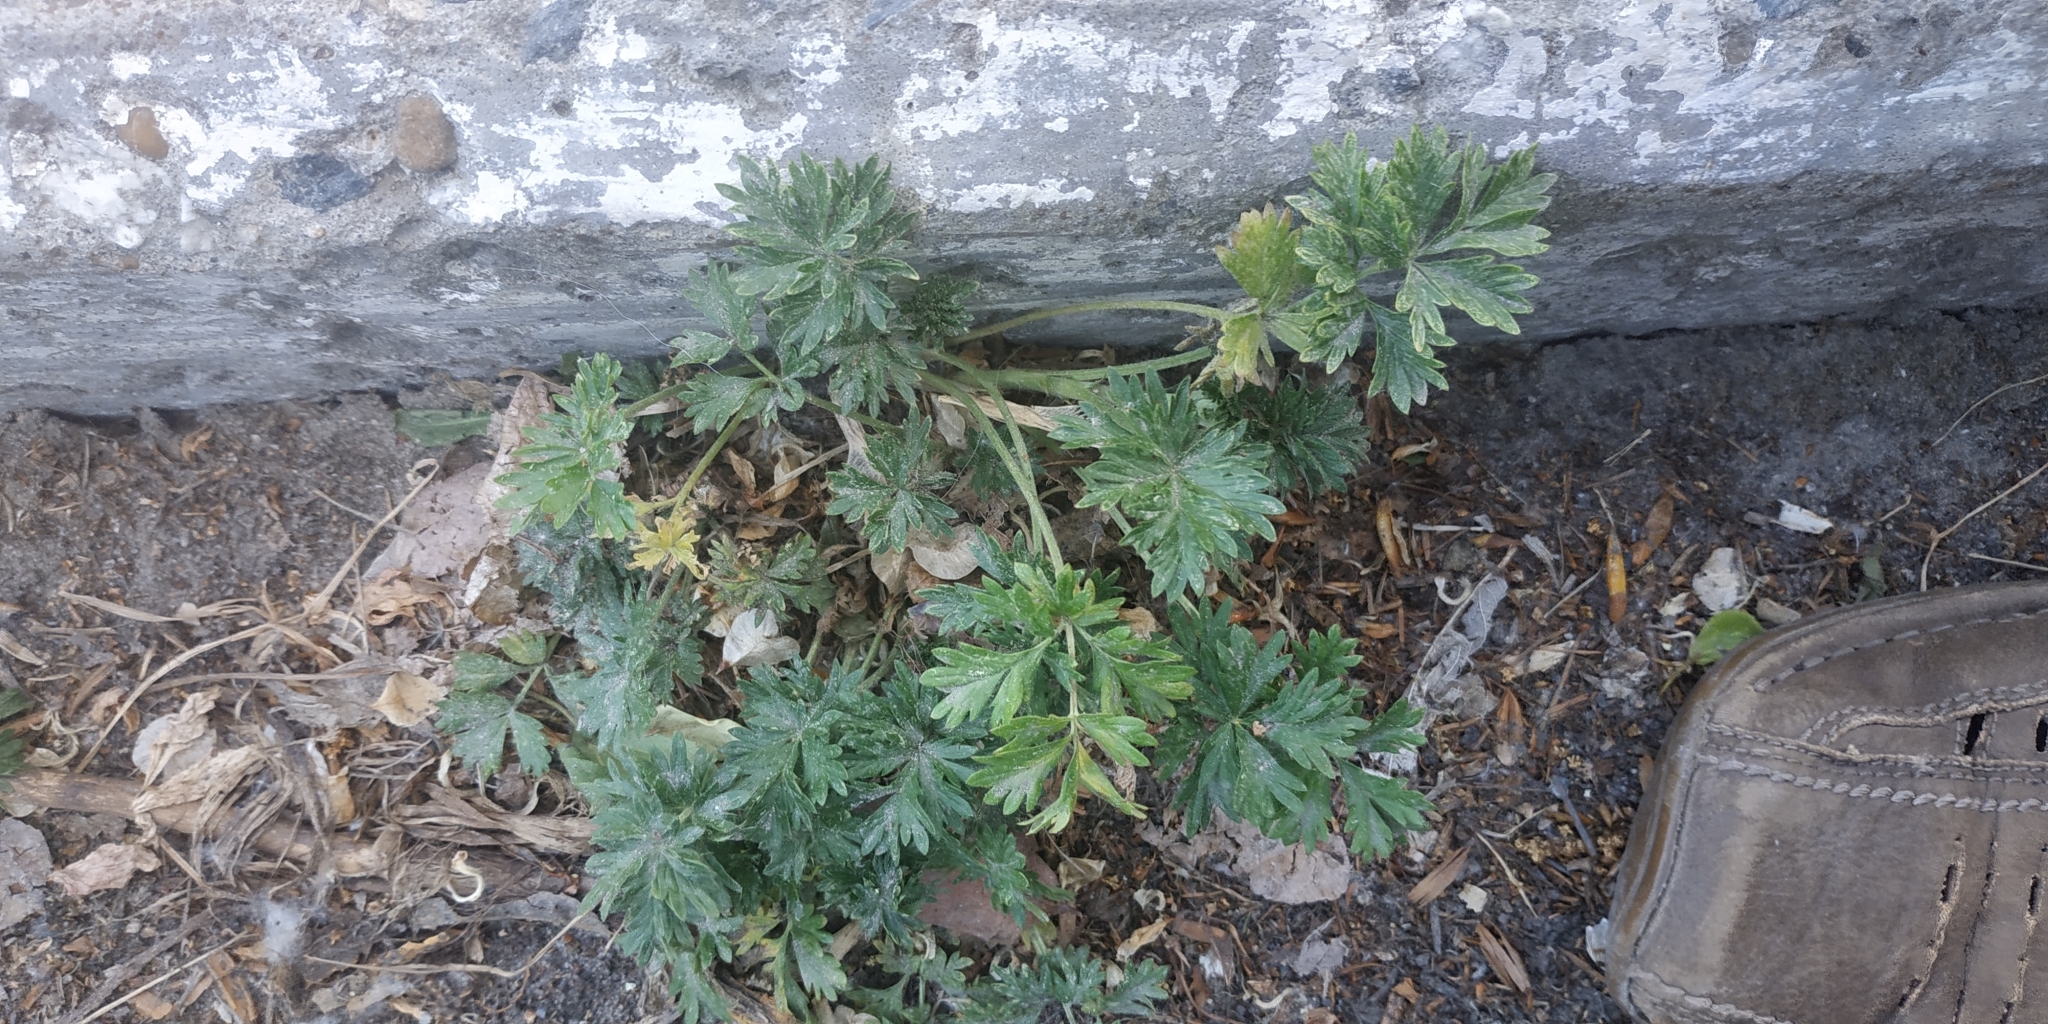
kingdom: Plantae
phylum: Tracheophyta
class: Magnoliopsida
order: Rosales
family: Rosaceae
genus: Potentilla
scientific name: Potentilla tobolensis
